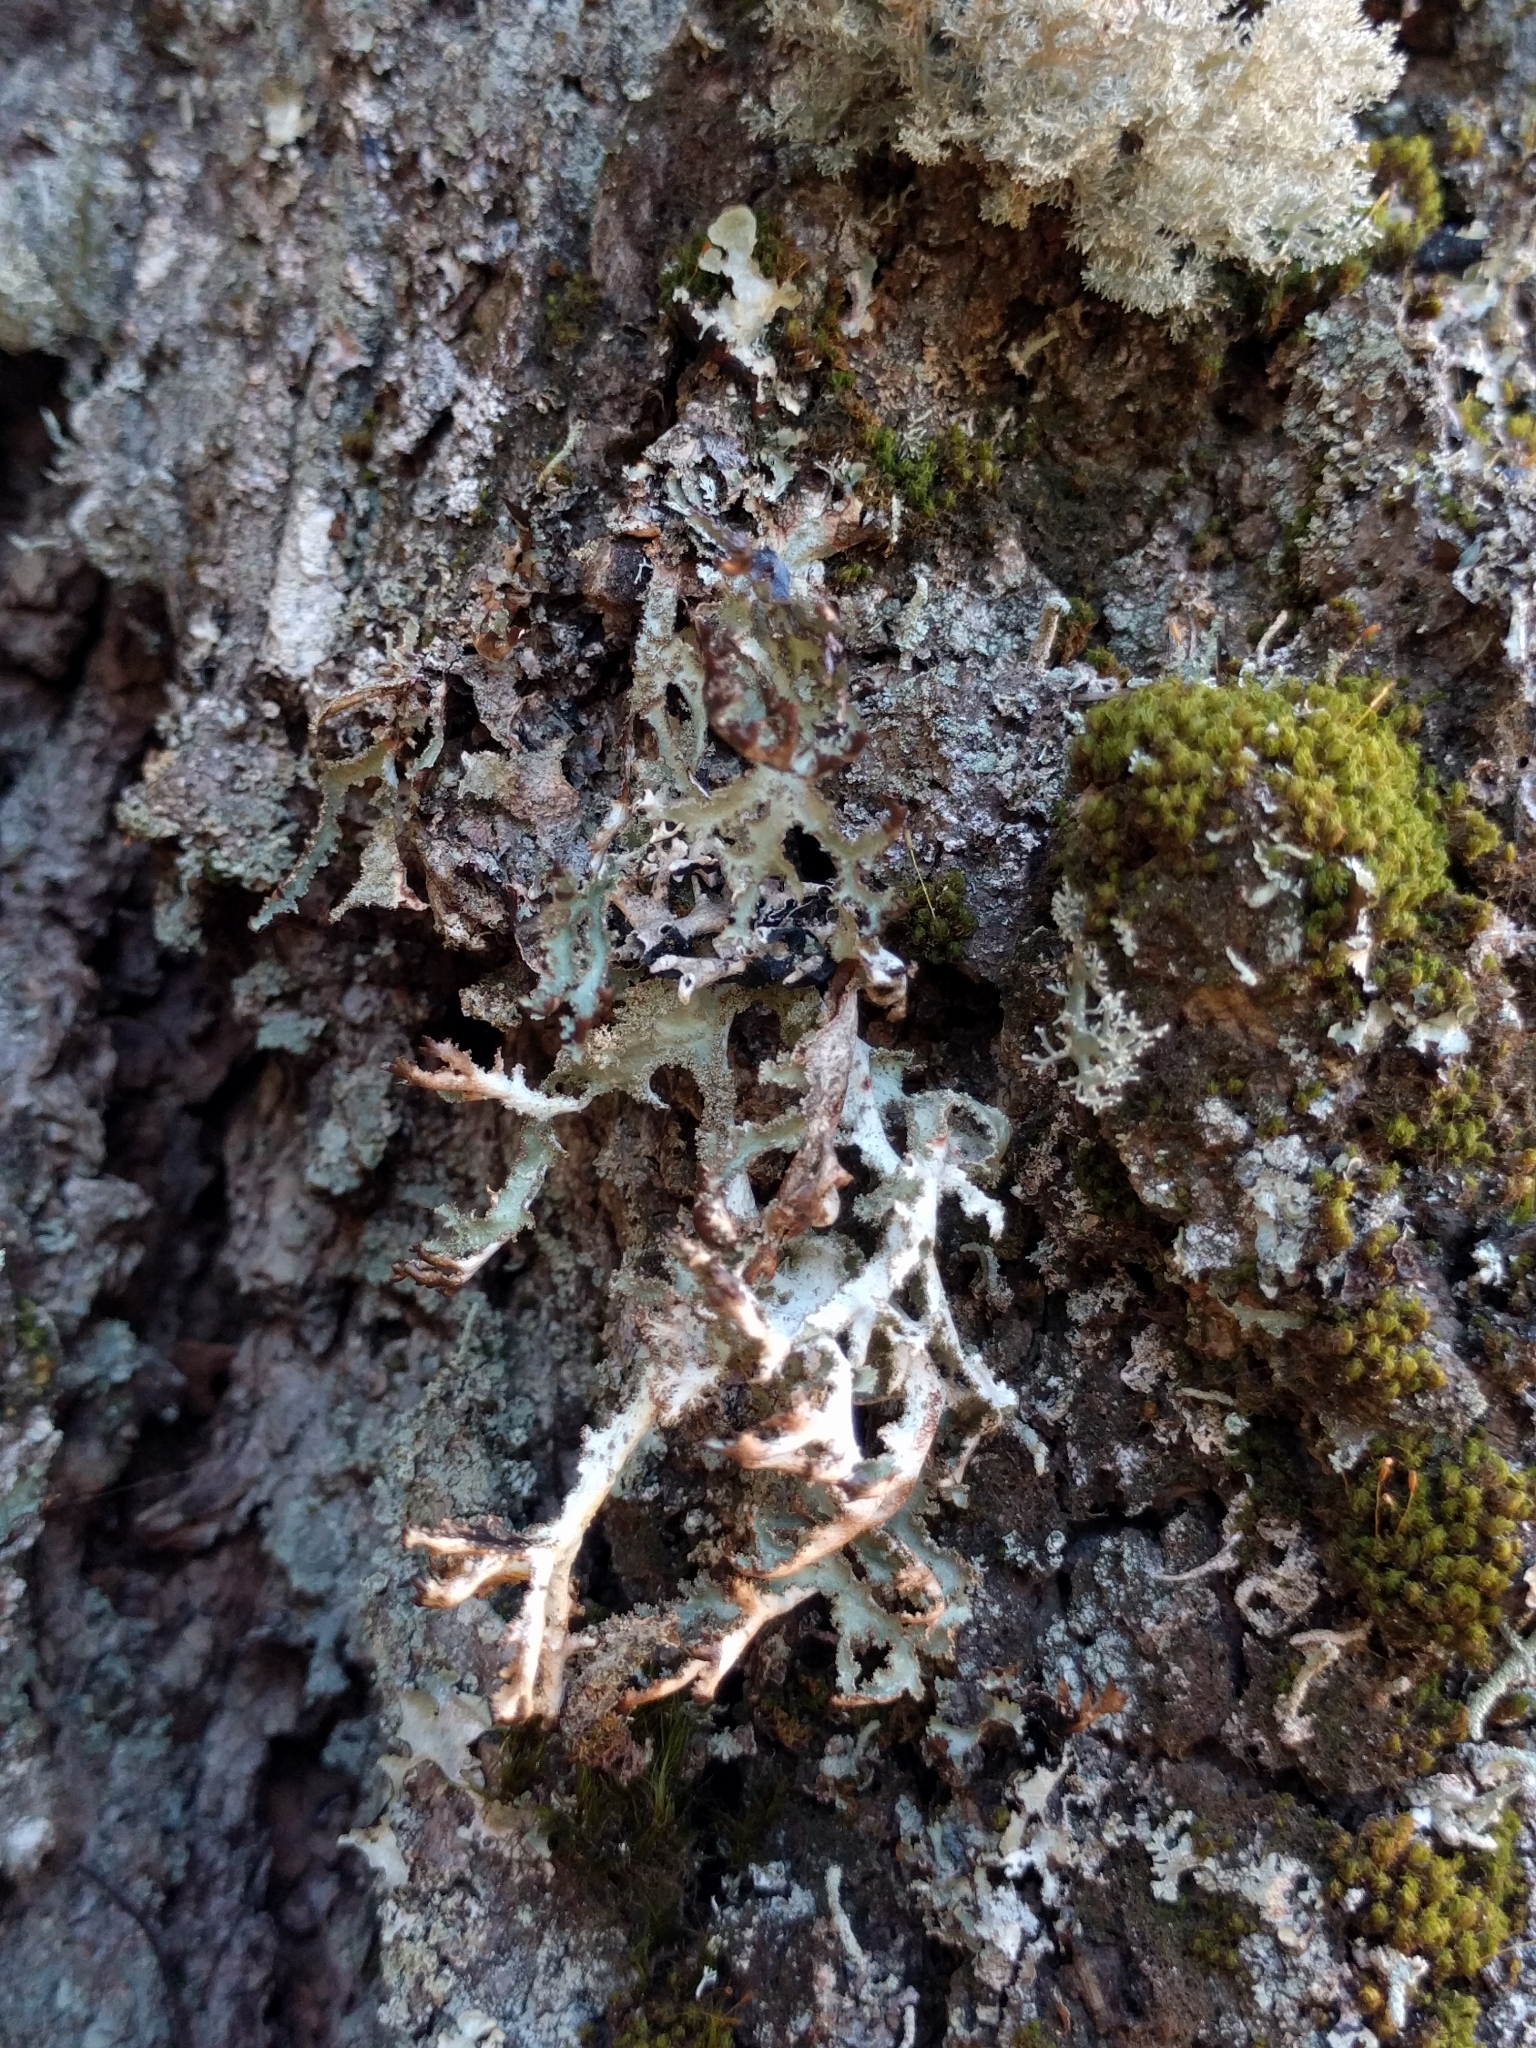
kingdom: Fungi
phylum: Ascomycota
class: Lecanoromycetes
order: Lecanorales
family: Parmeliaceae
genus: Platismatia
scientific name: Platismatia herrei
